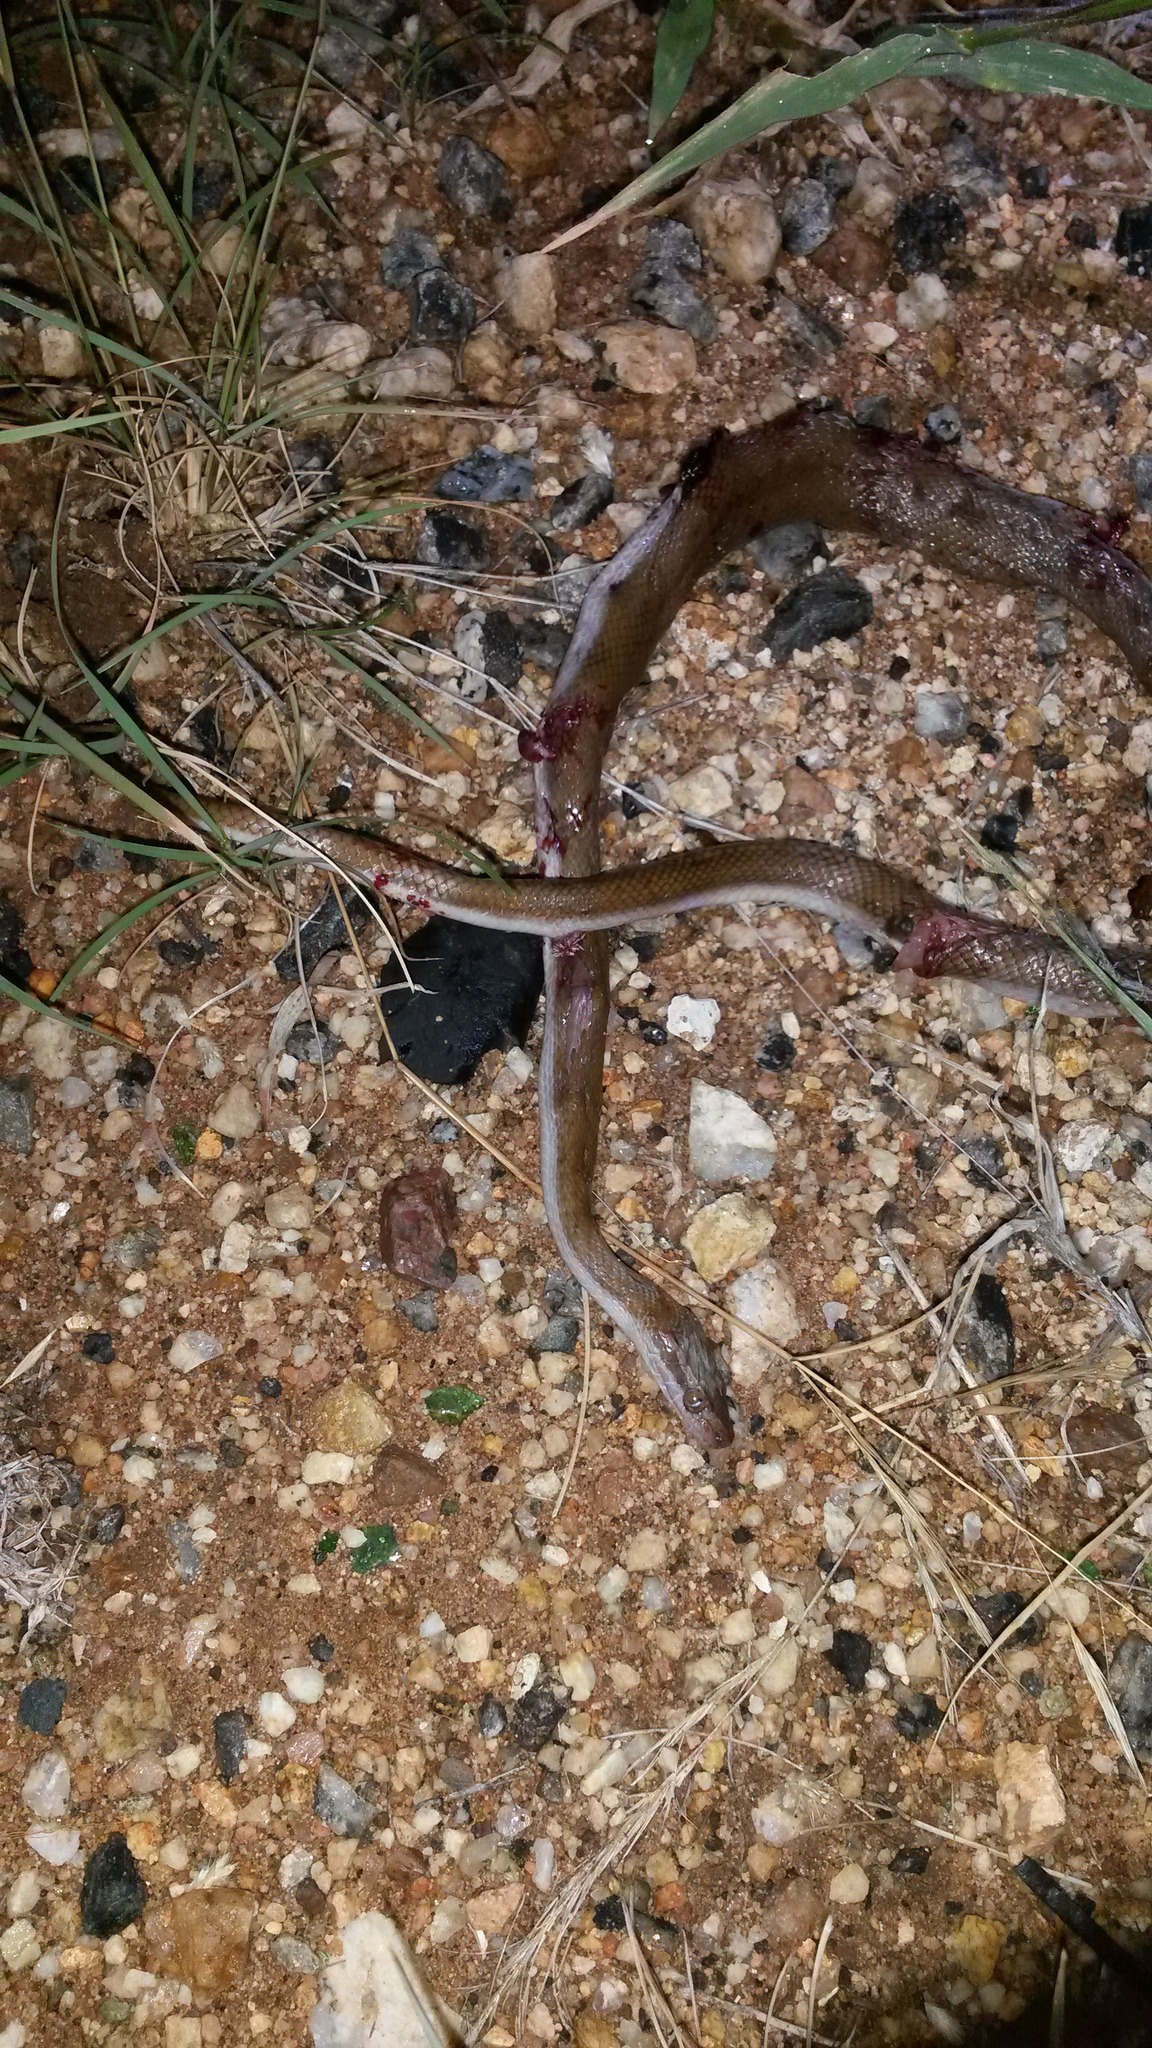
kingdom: Animalia
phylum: Chordata
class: Squamata
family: Lamprophiidae
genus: Boaedon
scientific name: Boaedon capensis
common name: Brown house snake
